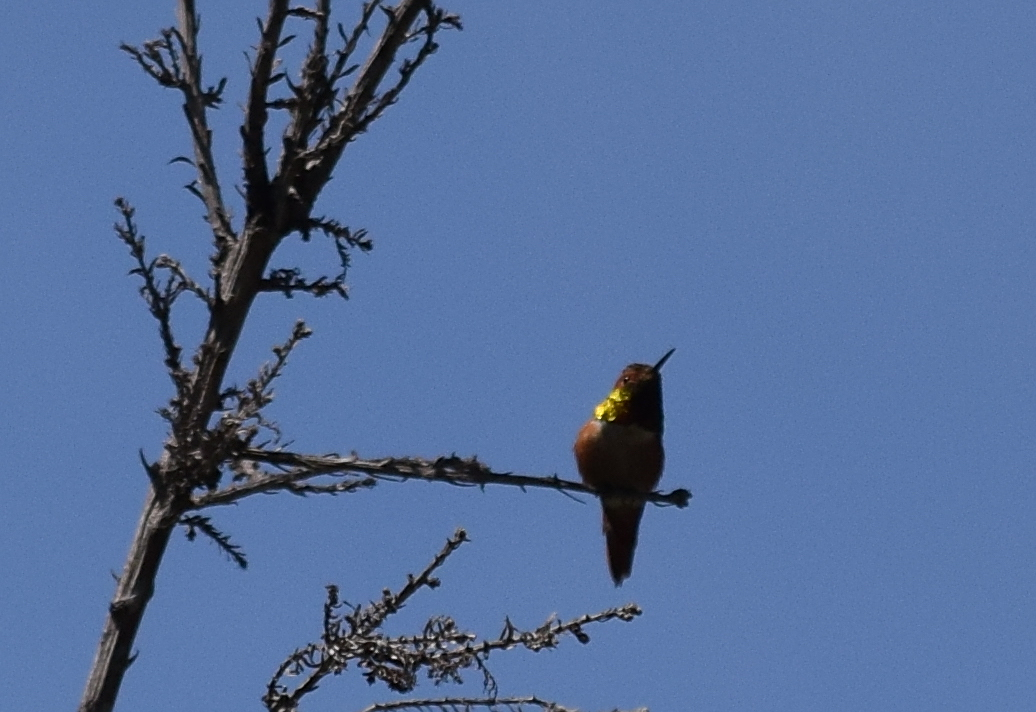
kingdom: Animalia
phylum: Chordata
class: Aves
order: Apodiformes
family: Trochilidae
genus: Selasphorus
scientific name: Selasphorus
